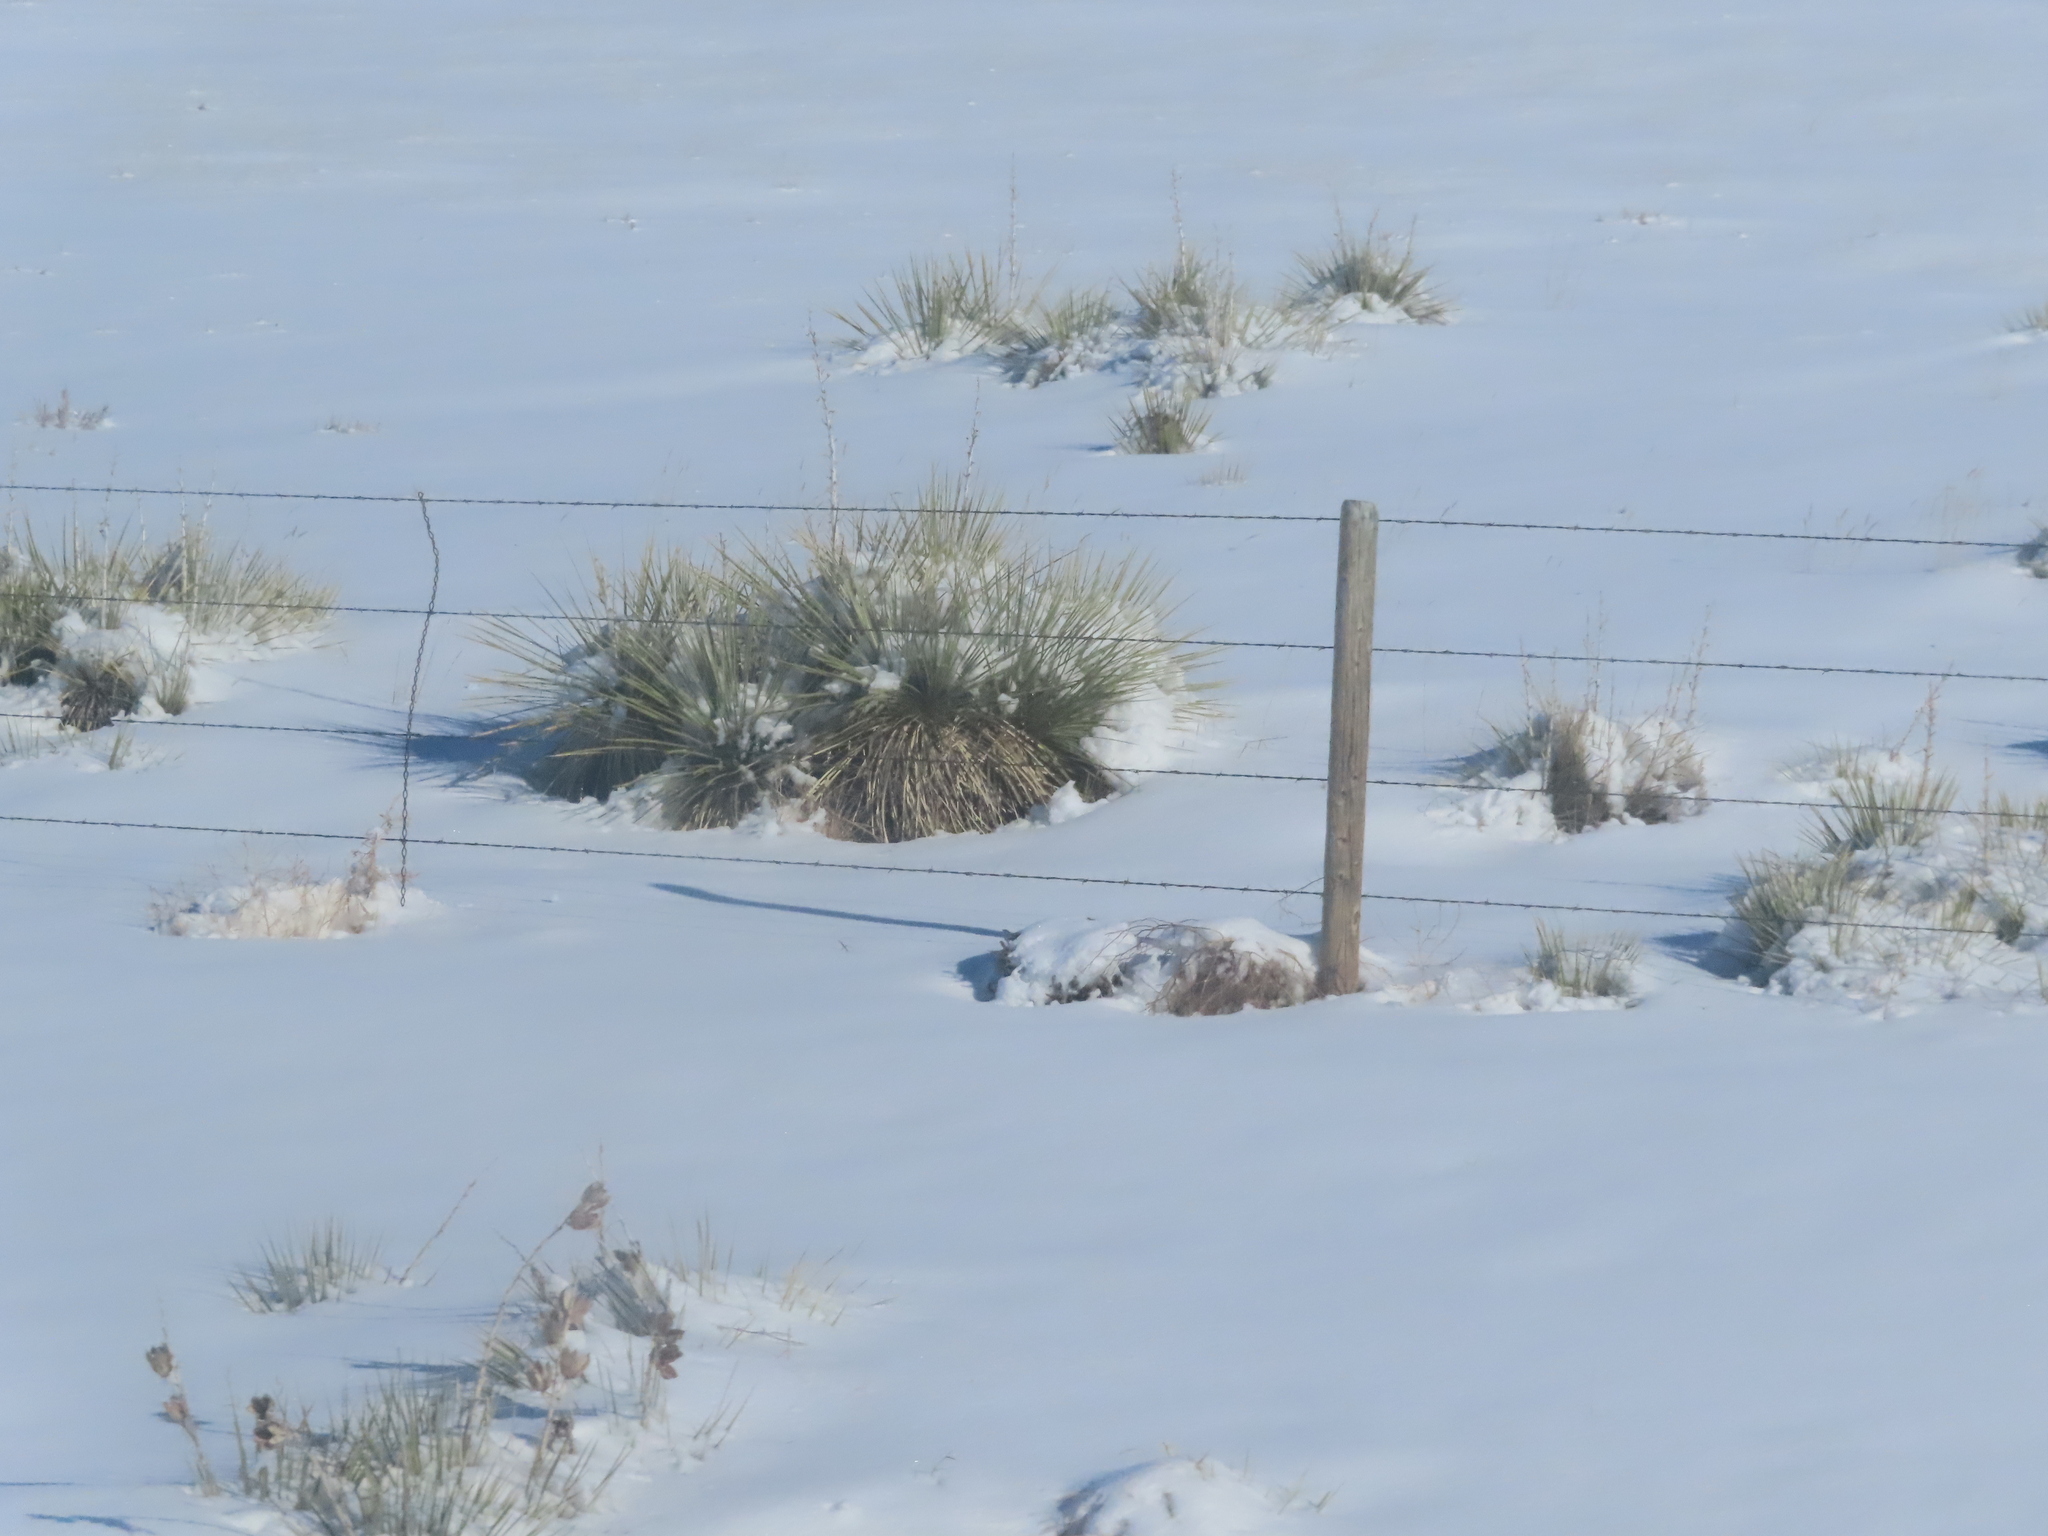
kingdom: Plantae
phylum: Tracheophyta
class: Liliopsida
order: Asparagales
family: Asparagaceae
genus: Yucca
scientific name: Yucca glauca
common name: Great plains yucca
